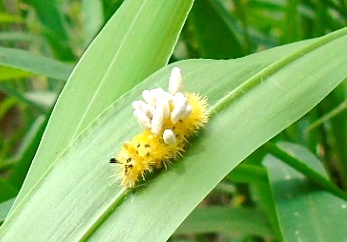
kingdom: Animalia
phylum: Arthropoda
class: Insecta
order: Hymenoptera
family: Braconidae
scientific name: Braconidae
